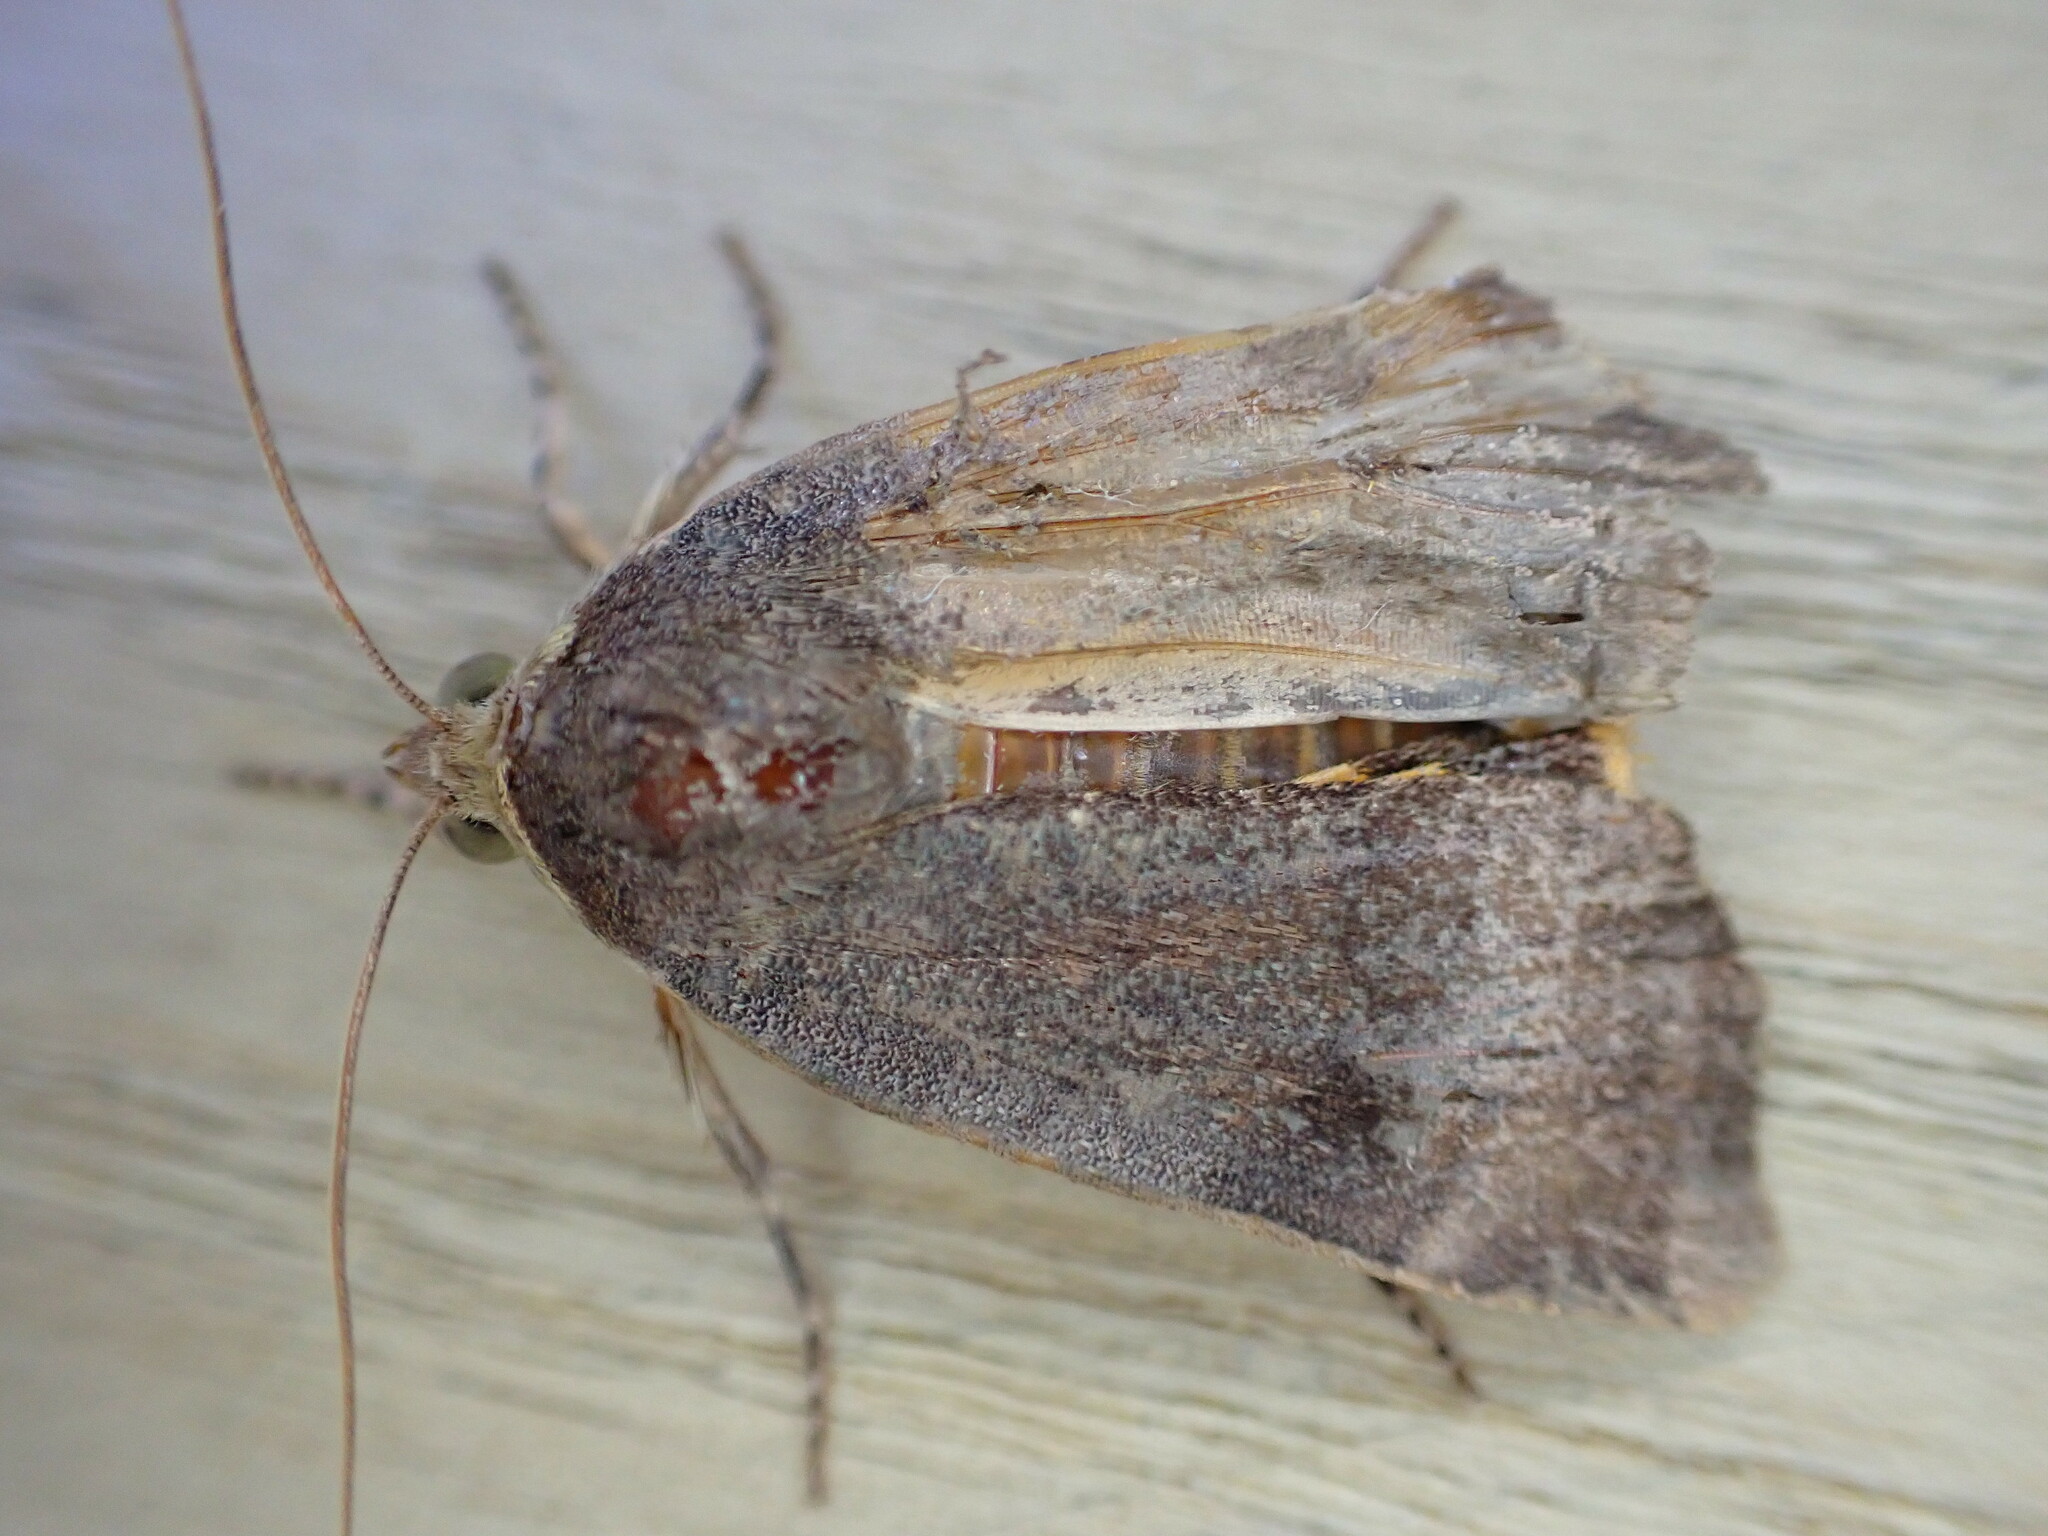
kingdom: Animalia
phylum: Arthropoda
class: Insecta
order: Lepidoptera
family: Noctuidae
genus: Noctua
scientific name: Noctua janthe
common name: Lesser broad-bordered yellow underwing
